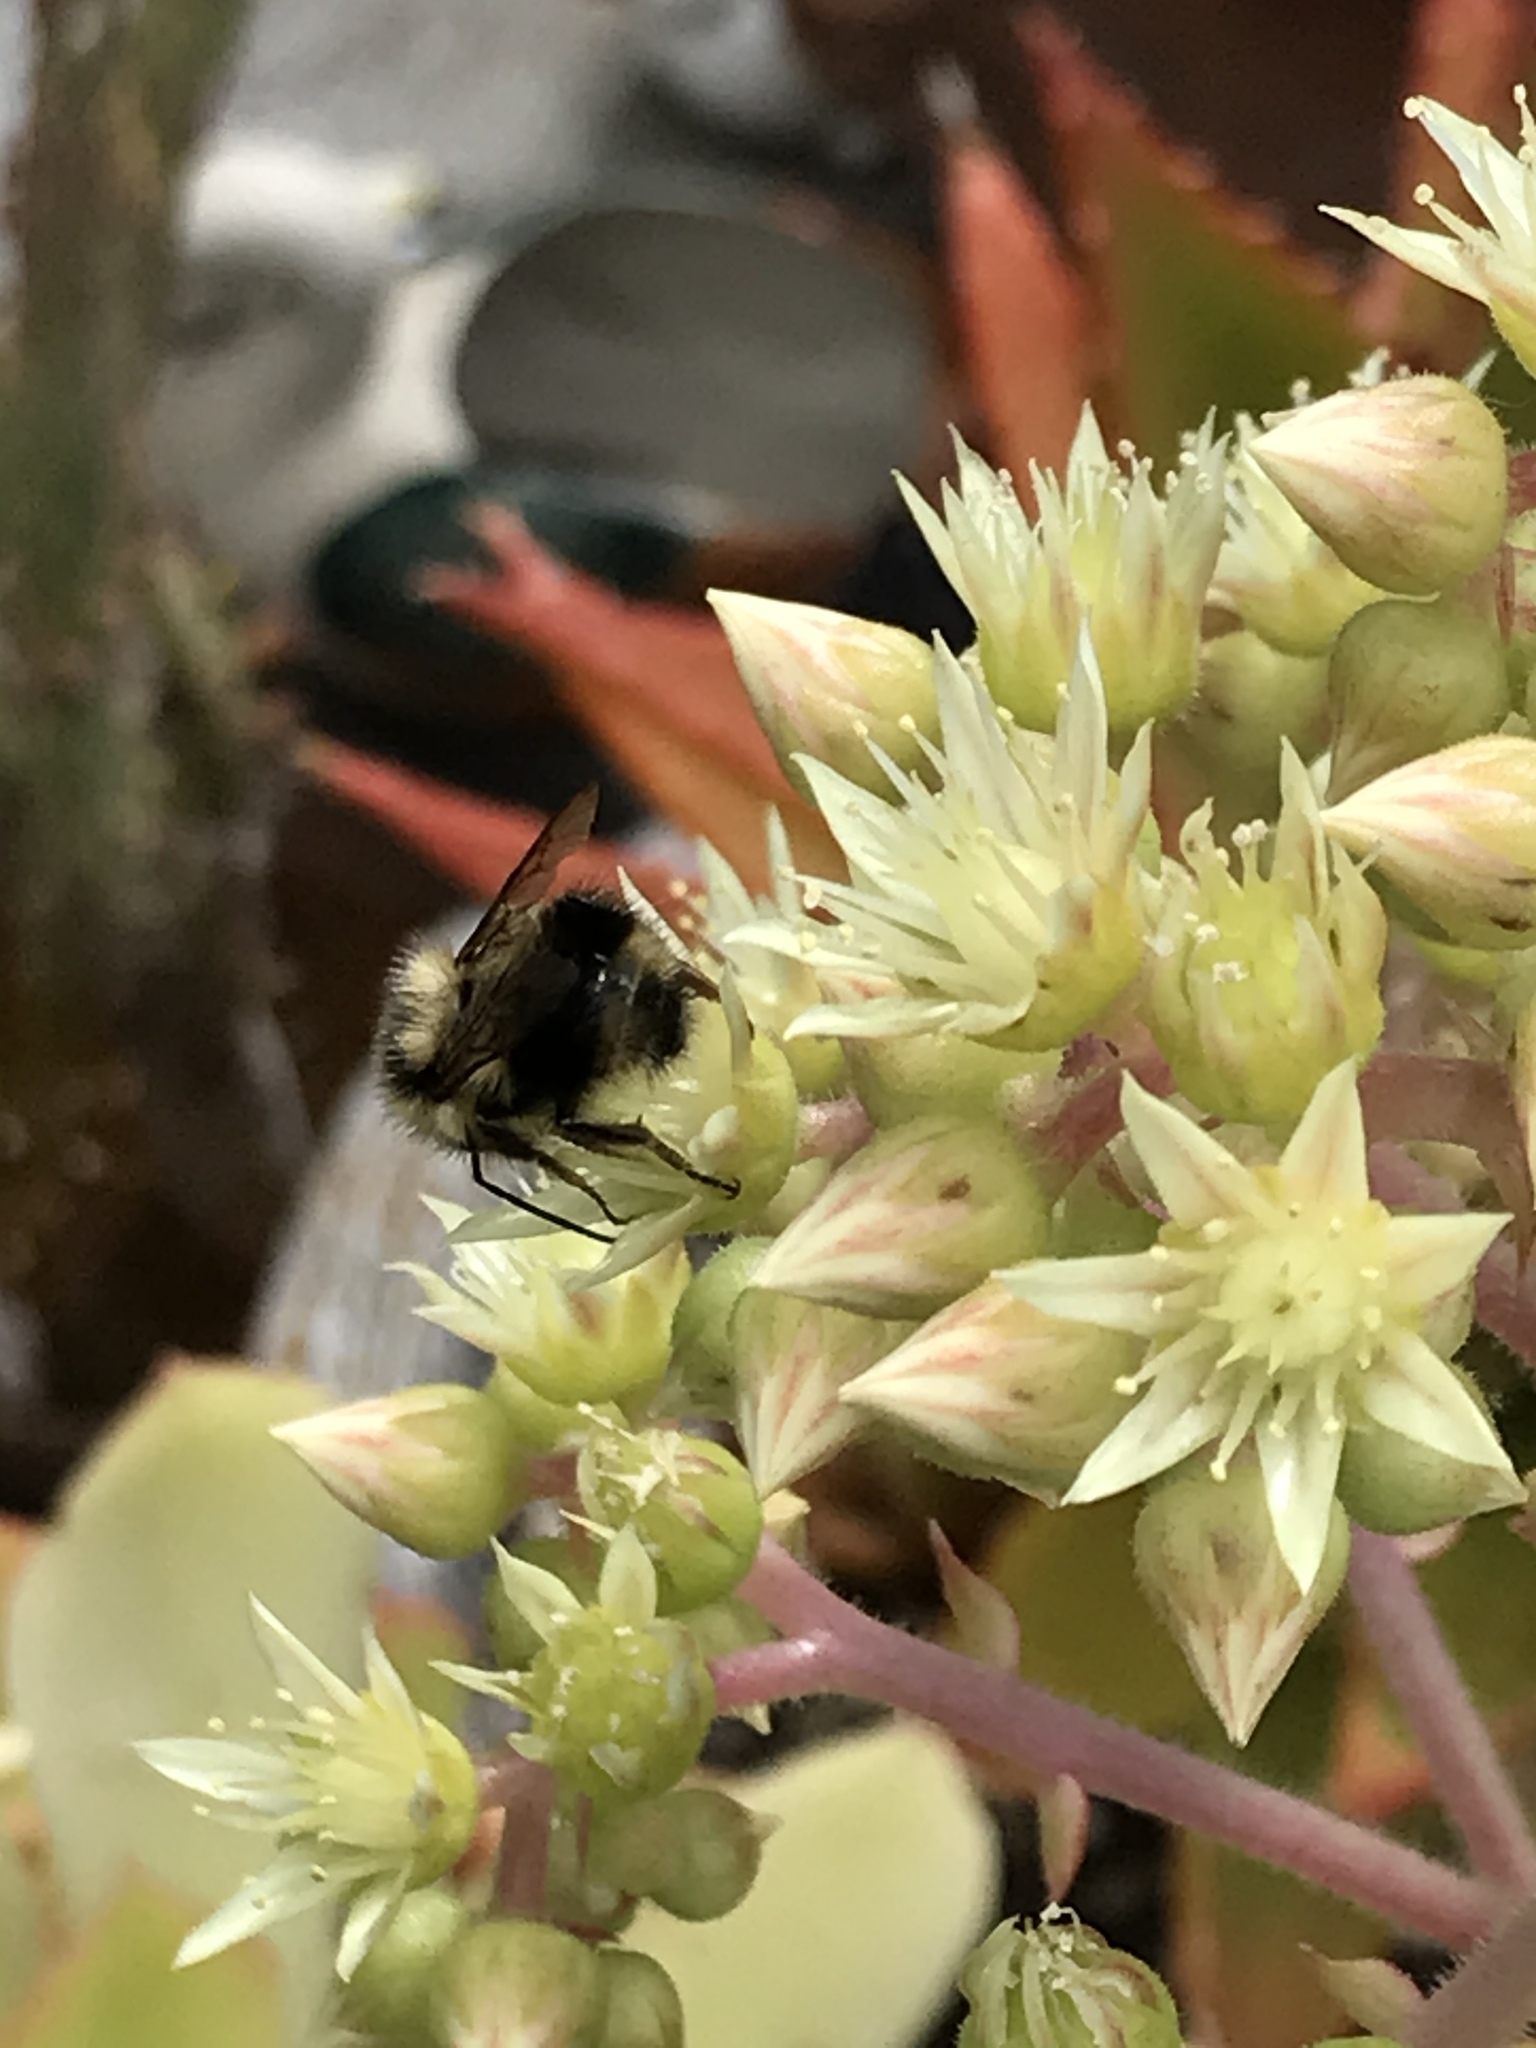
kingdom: Animalia
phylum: Arthropoda
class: Insecta
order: Hymenoptera
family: Apidae
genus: Bombus
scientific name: Bombus melanopygus
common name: Black tail bumble bee
